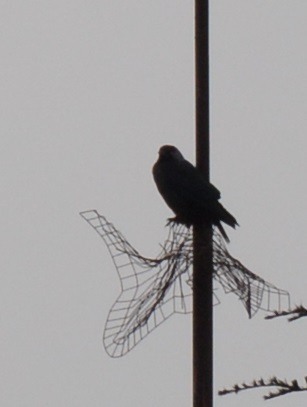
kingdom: Animalia
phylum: Chordata
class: Aves
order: Passeriformes
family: Corvidae
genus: Coloeus
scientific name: Coloeus monedula
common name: Western jackdaw
